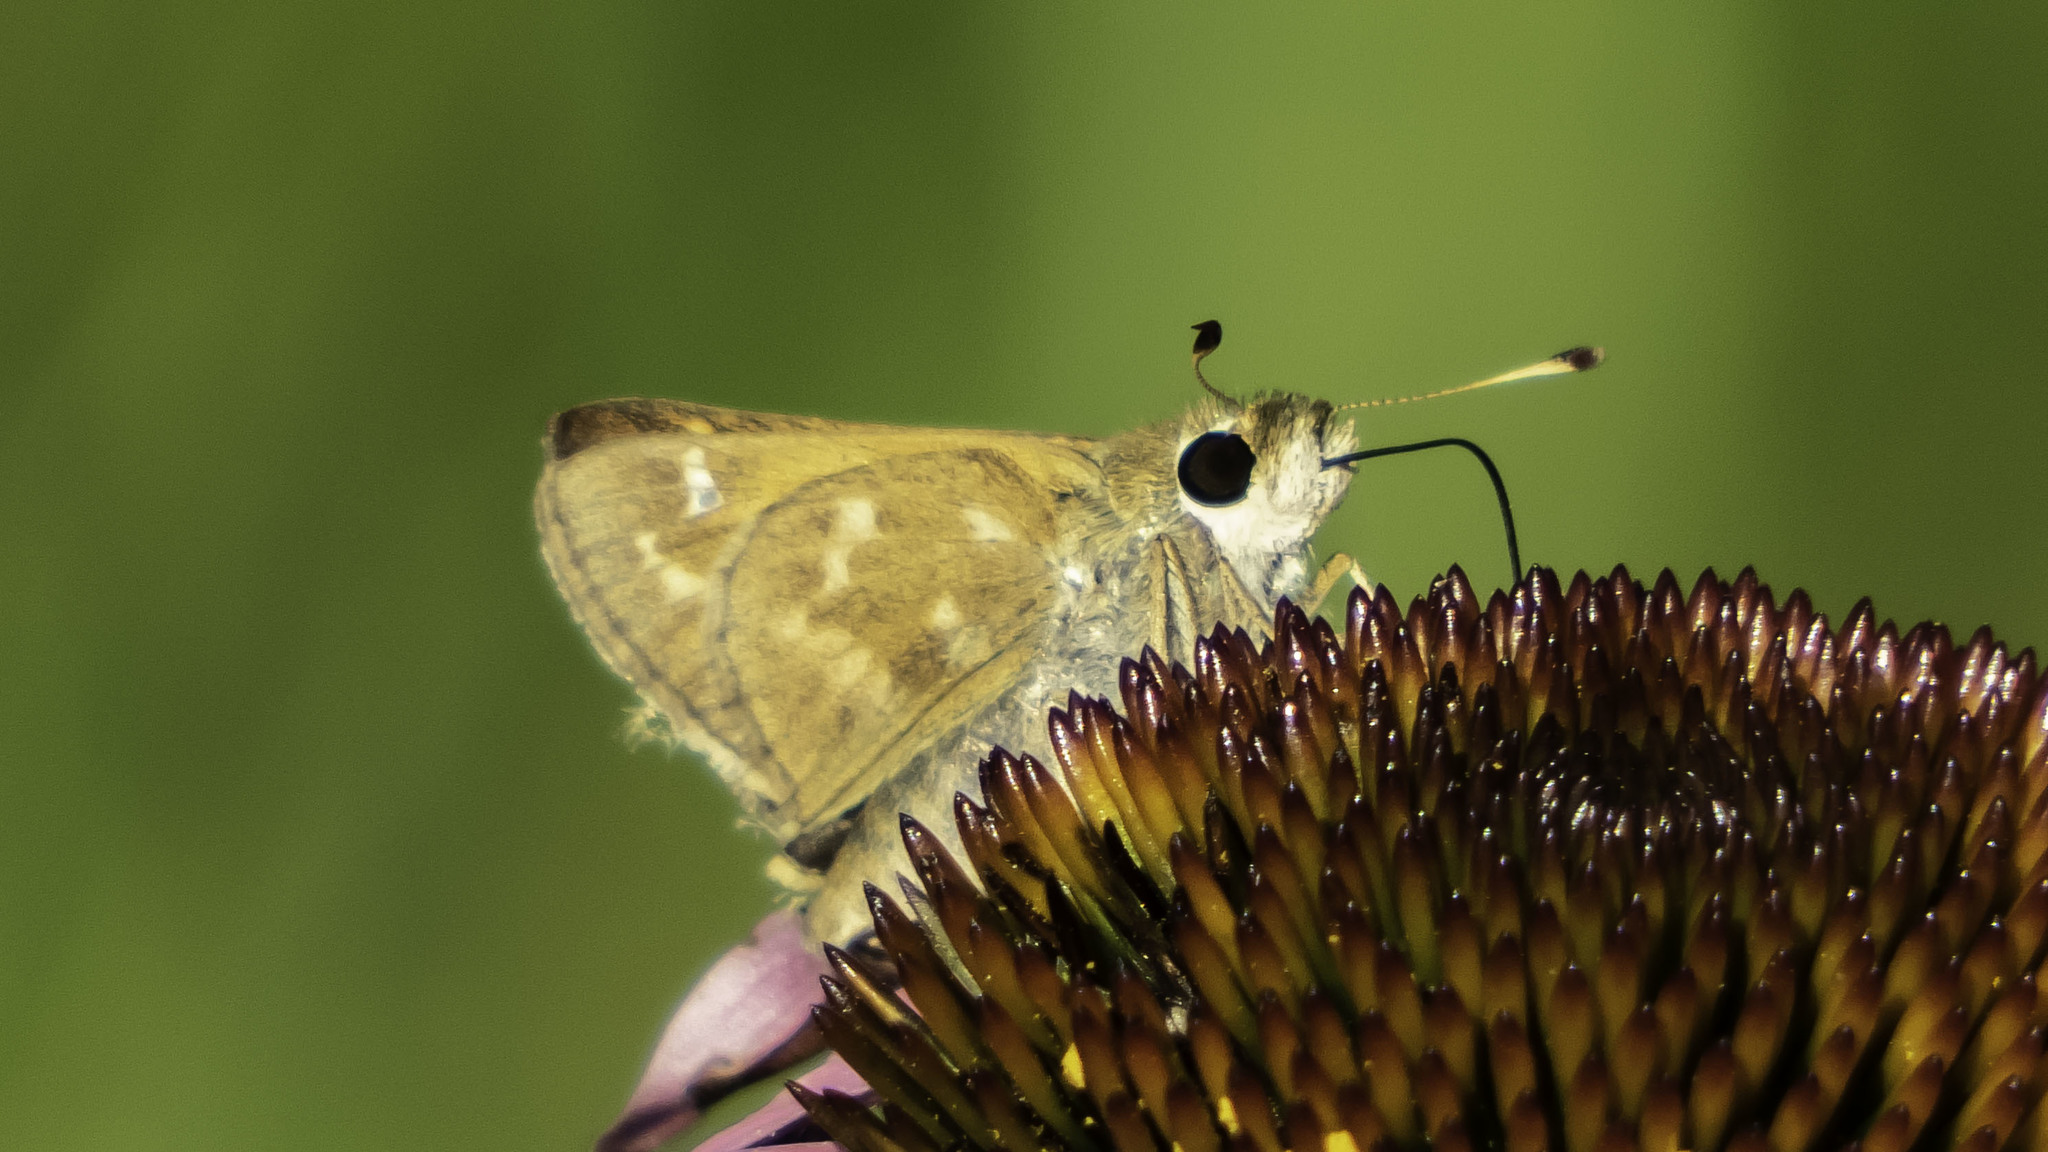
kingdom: Animalia
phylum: Arthropoda
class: Insecta
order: Lepidoptera
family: Hesperiidae
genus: Atalopedes
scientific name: Atalopedes
